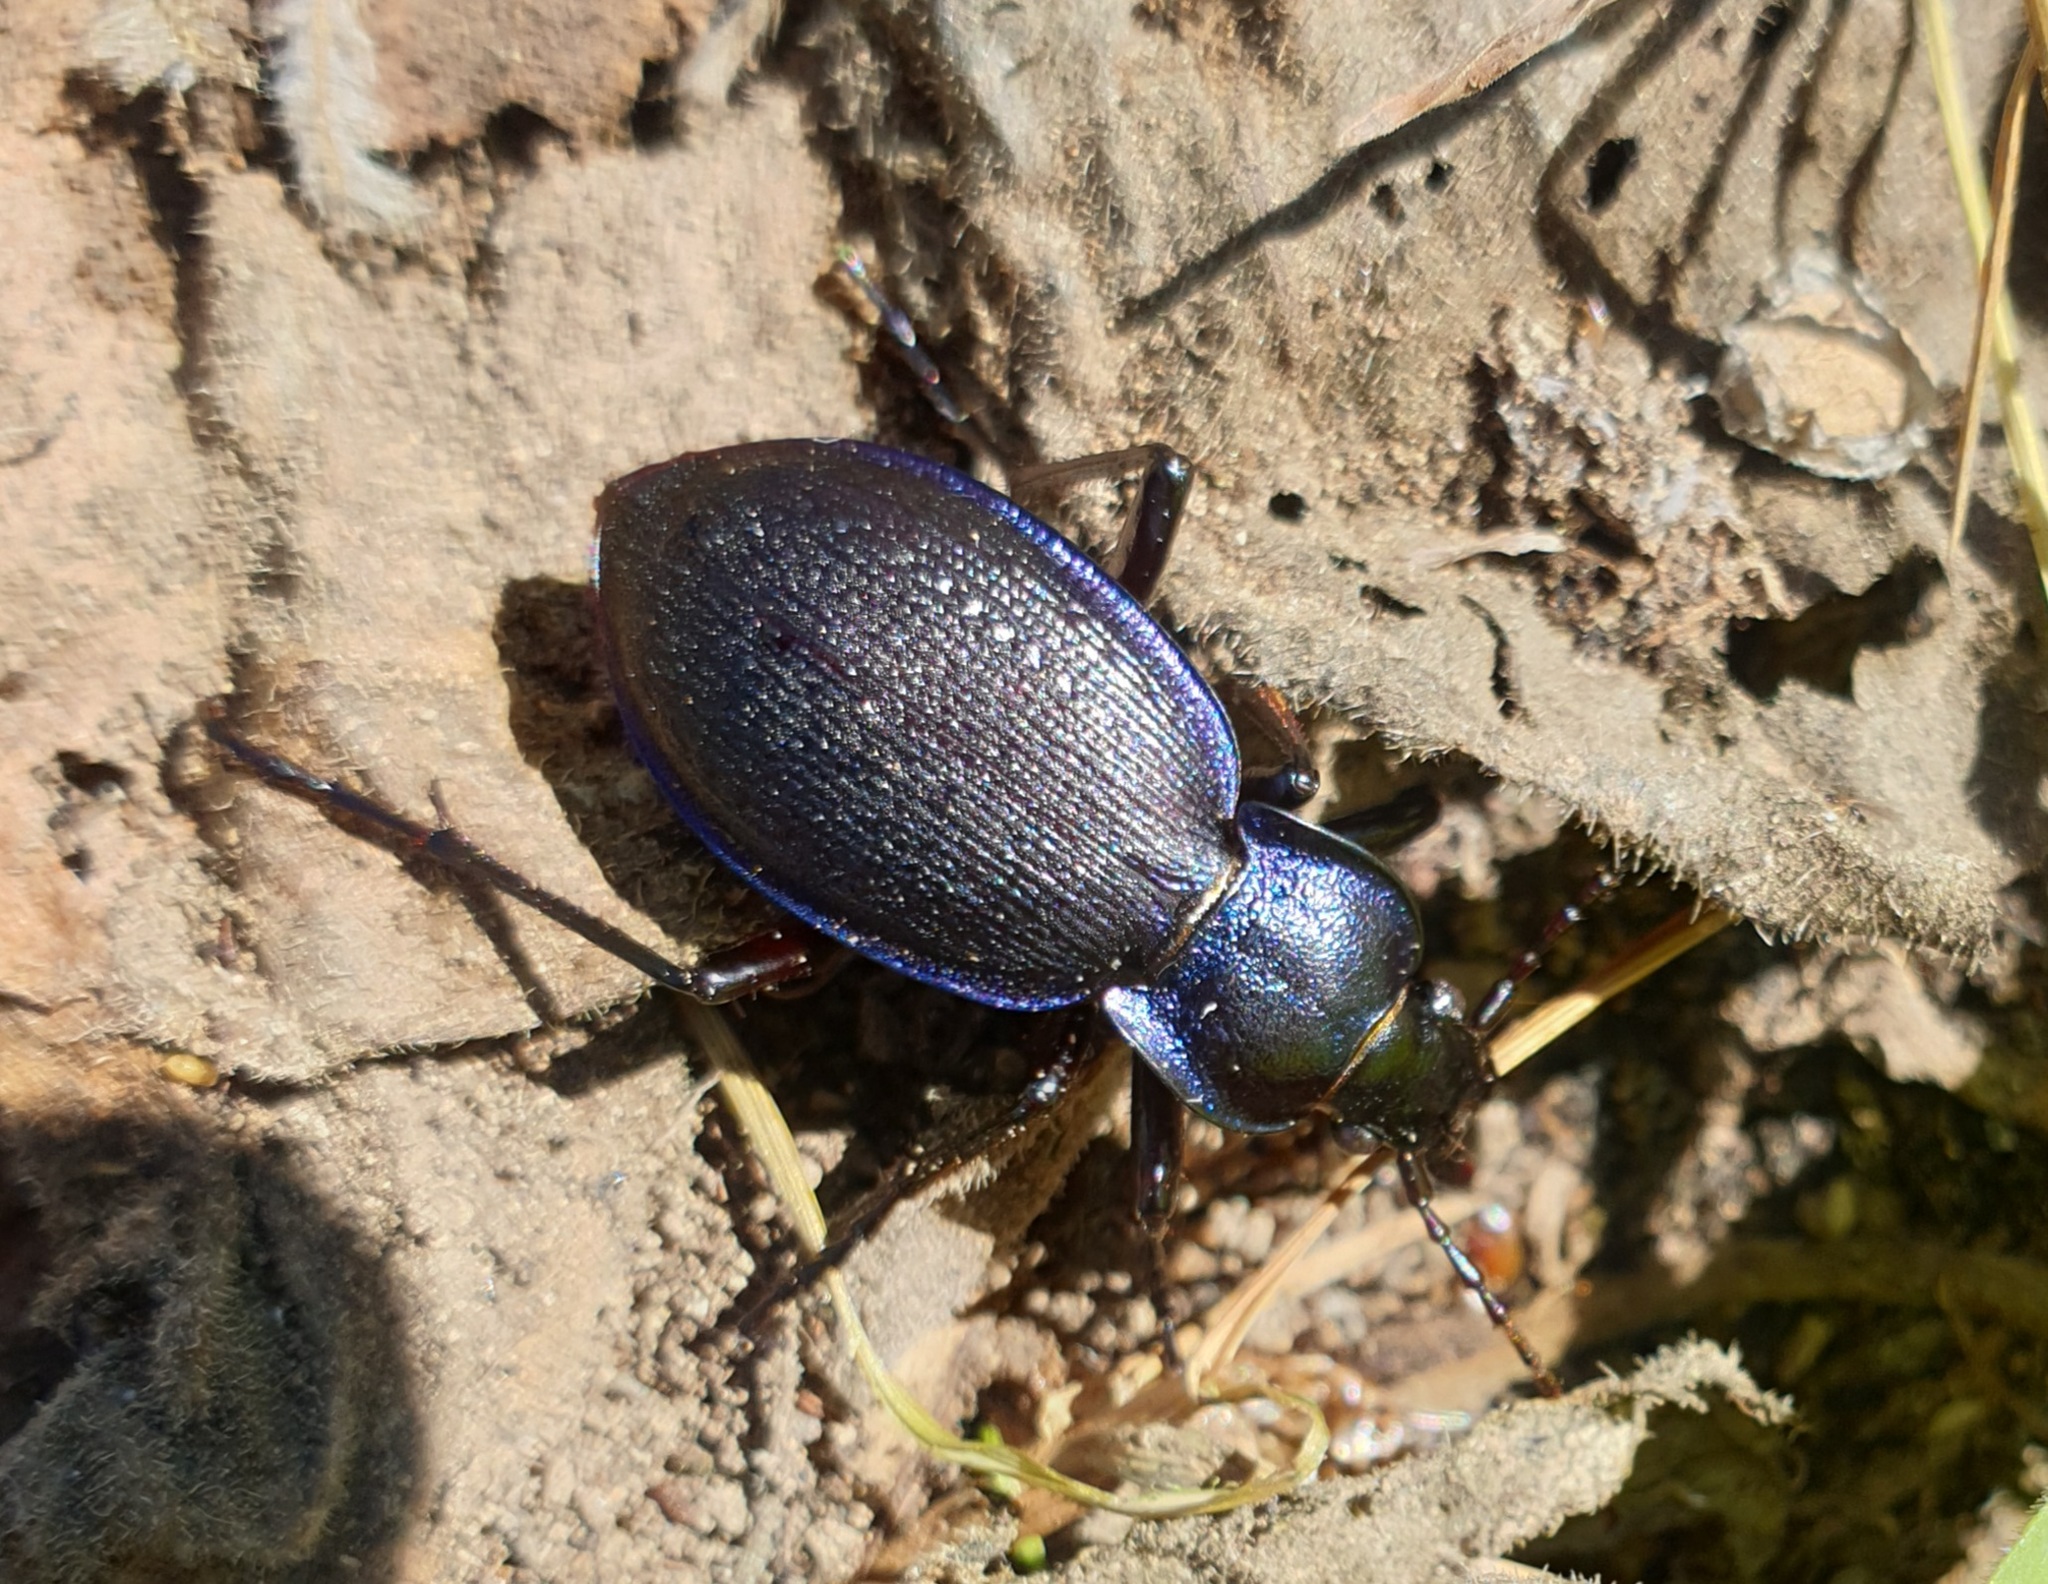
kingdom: Animalia
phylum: Arthropoda
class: Insecta
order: Coleoptera
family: Carabidae
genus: Carabus
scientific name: Carabus problematicus
